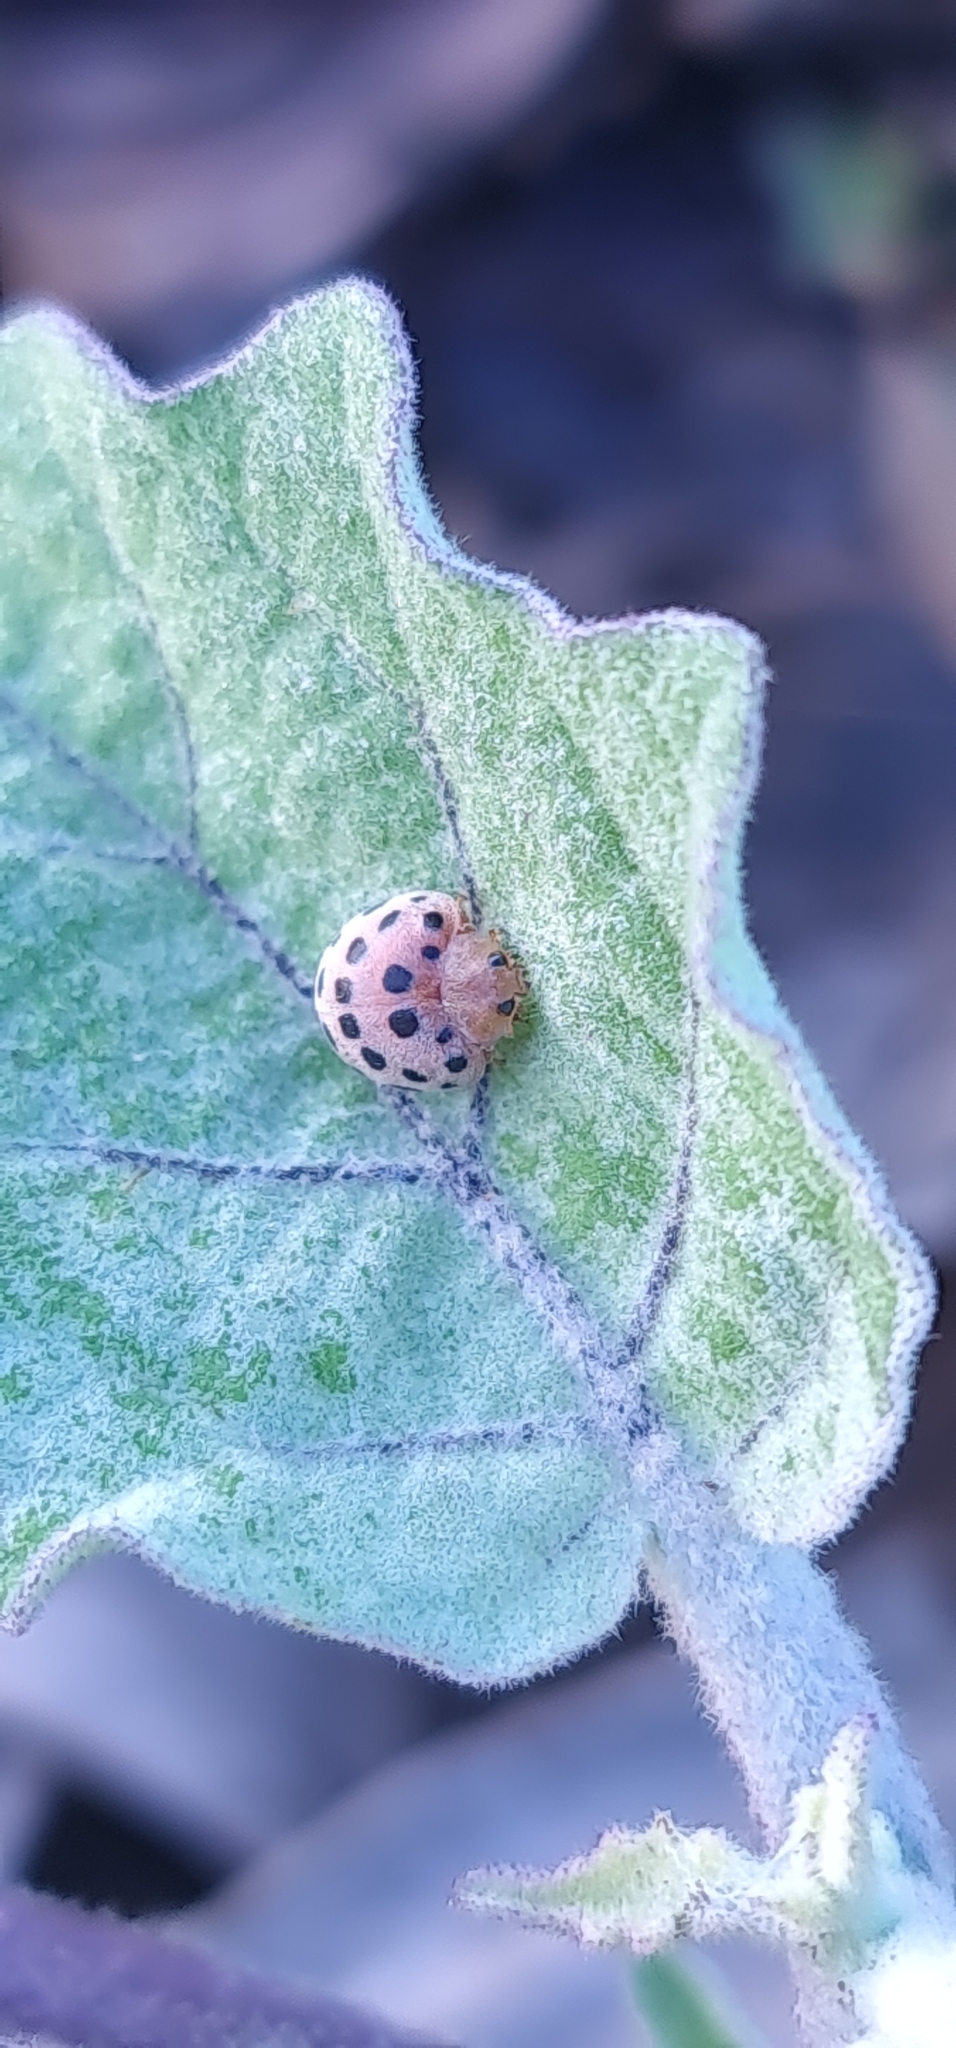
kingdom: Animalia
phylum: Arthropoda
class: Insecta
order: Coleoptera
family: Coccinellidae
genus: Henosepilachna
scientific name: Henosepilachna vigintioctopunctata
